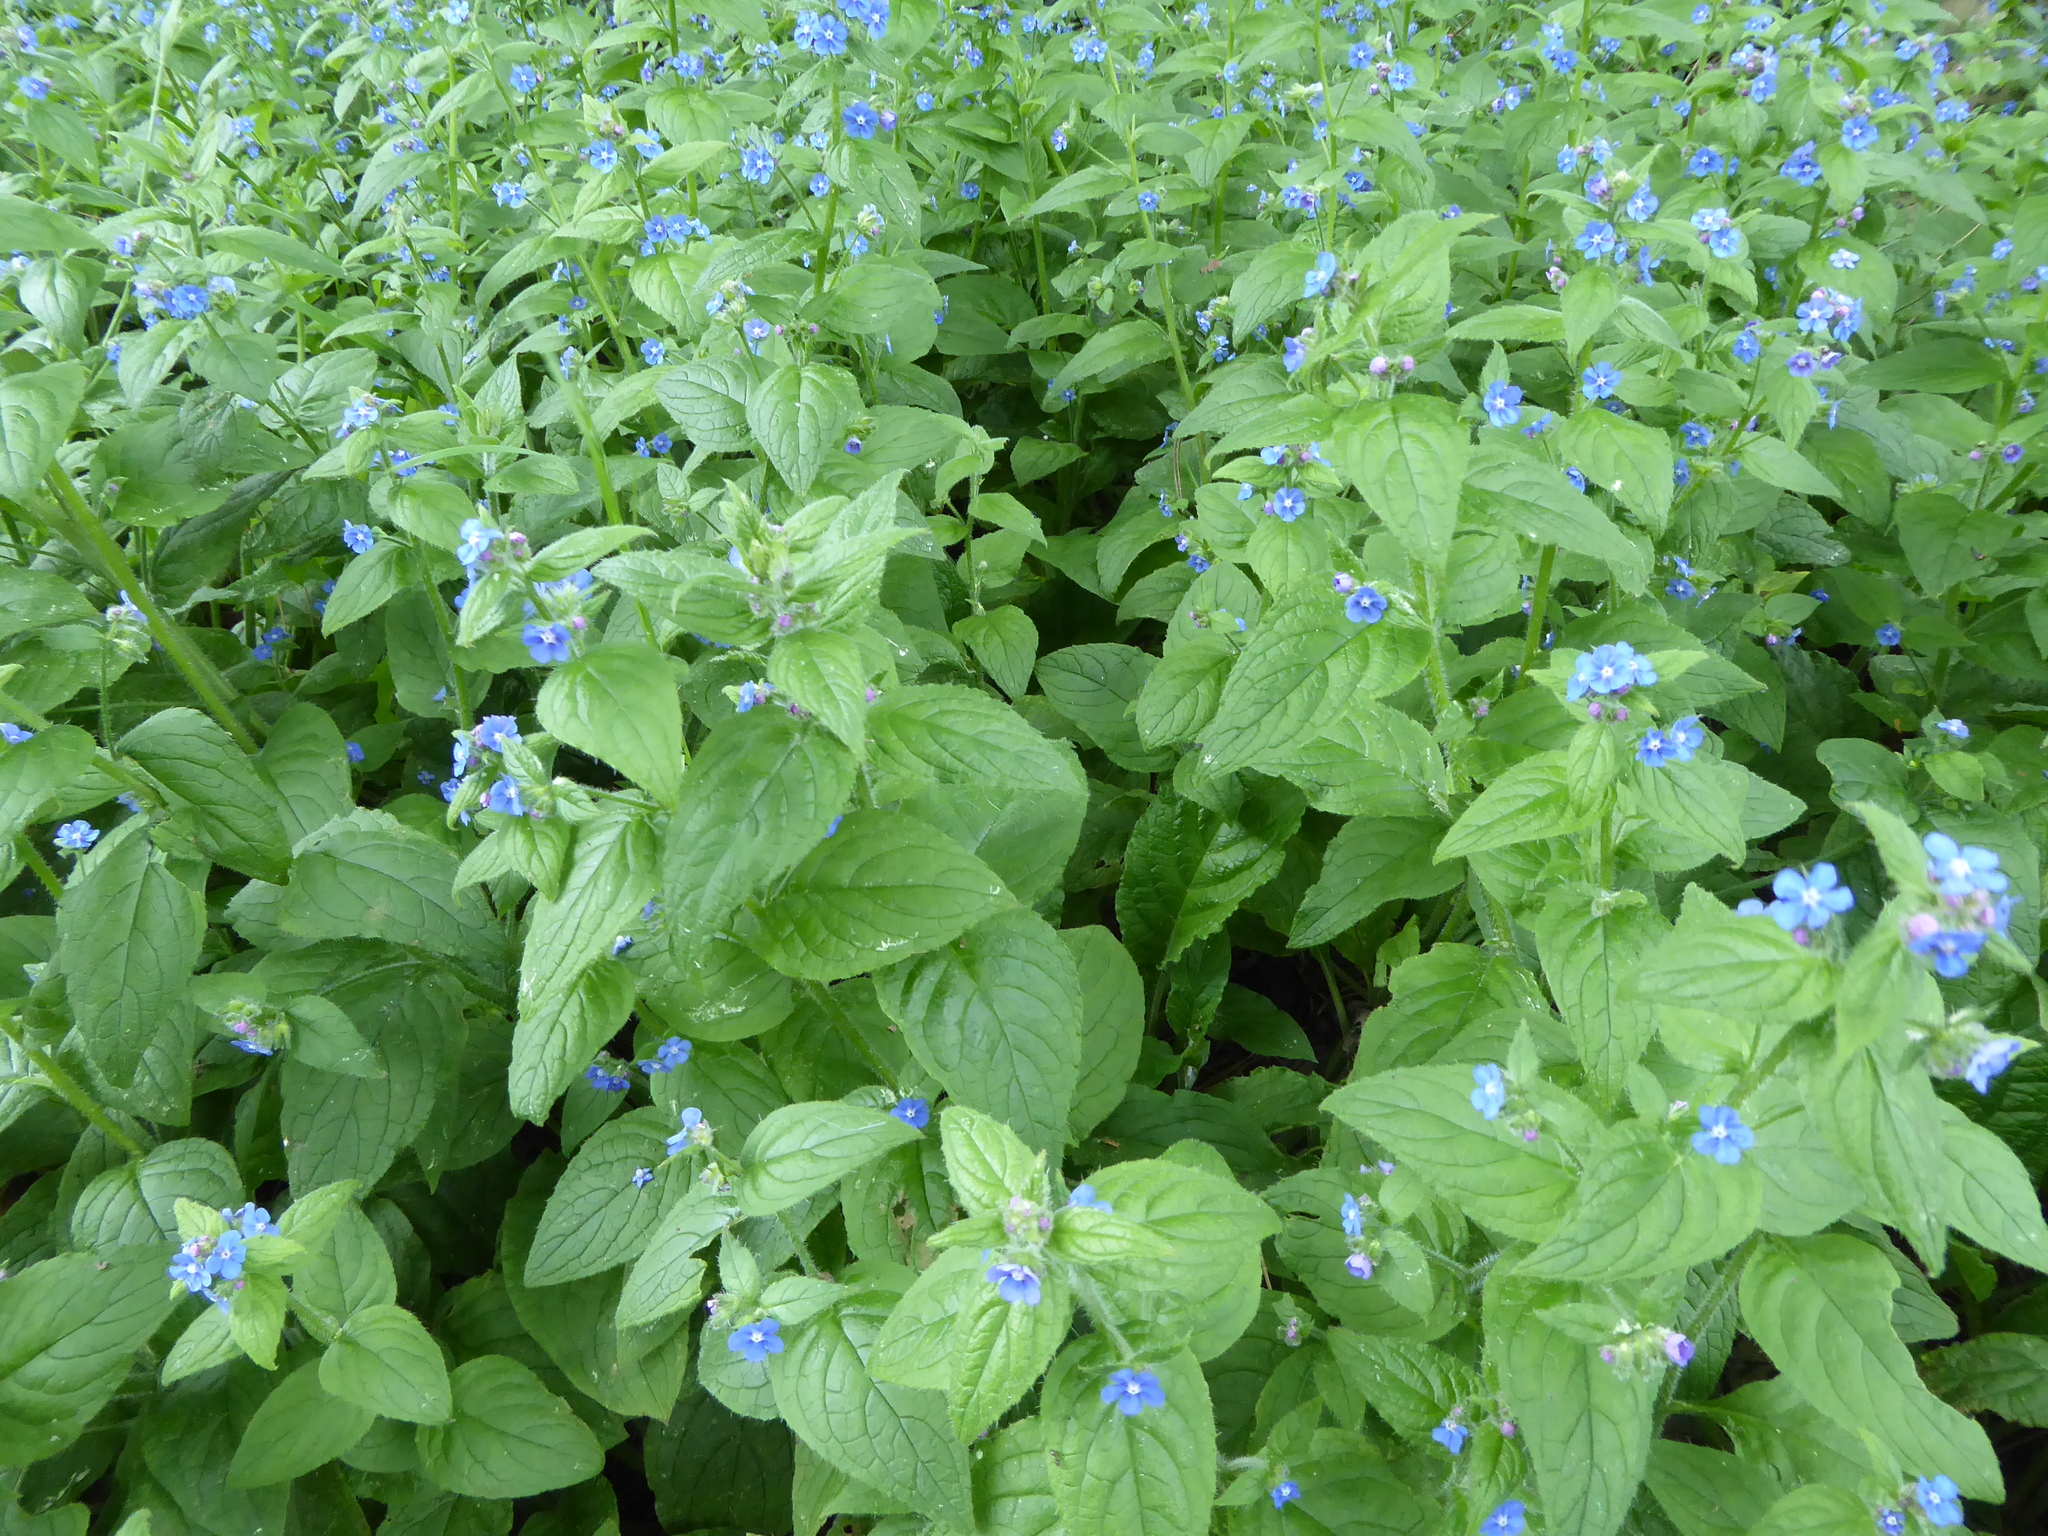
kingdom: Plantae
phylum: Tracheophyta
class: Magnoliopsida
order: Boraginales
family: Boraginaceae
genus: Pentaglottis
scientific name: Pentaglottis sempervirens
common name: Green alkanet
